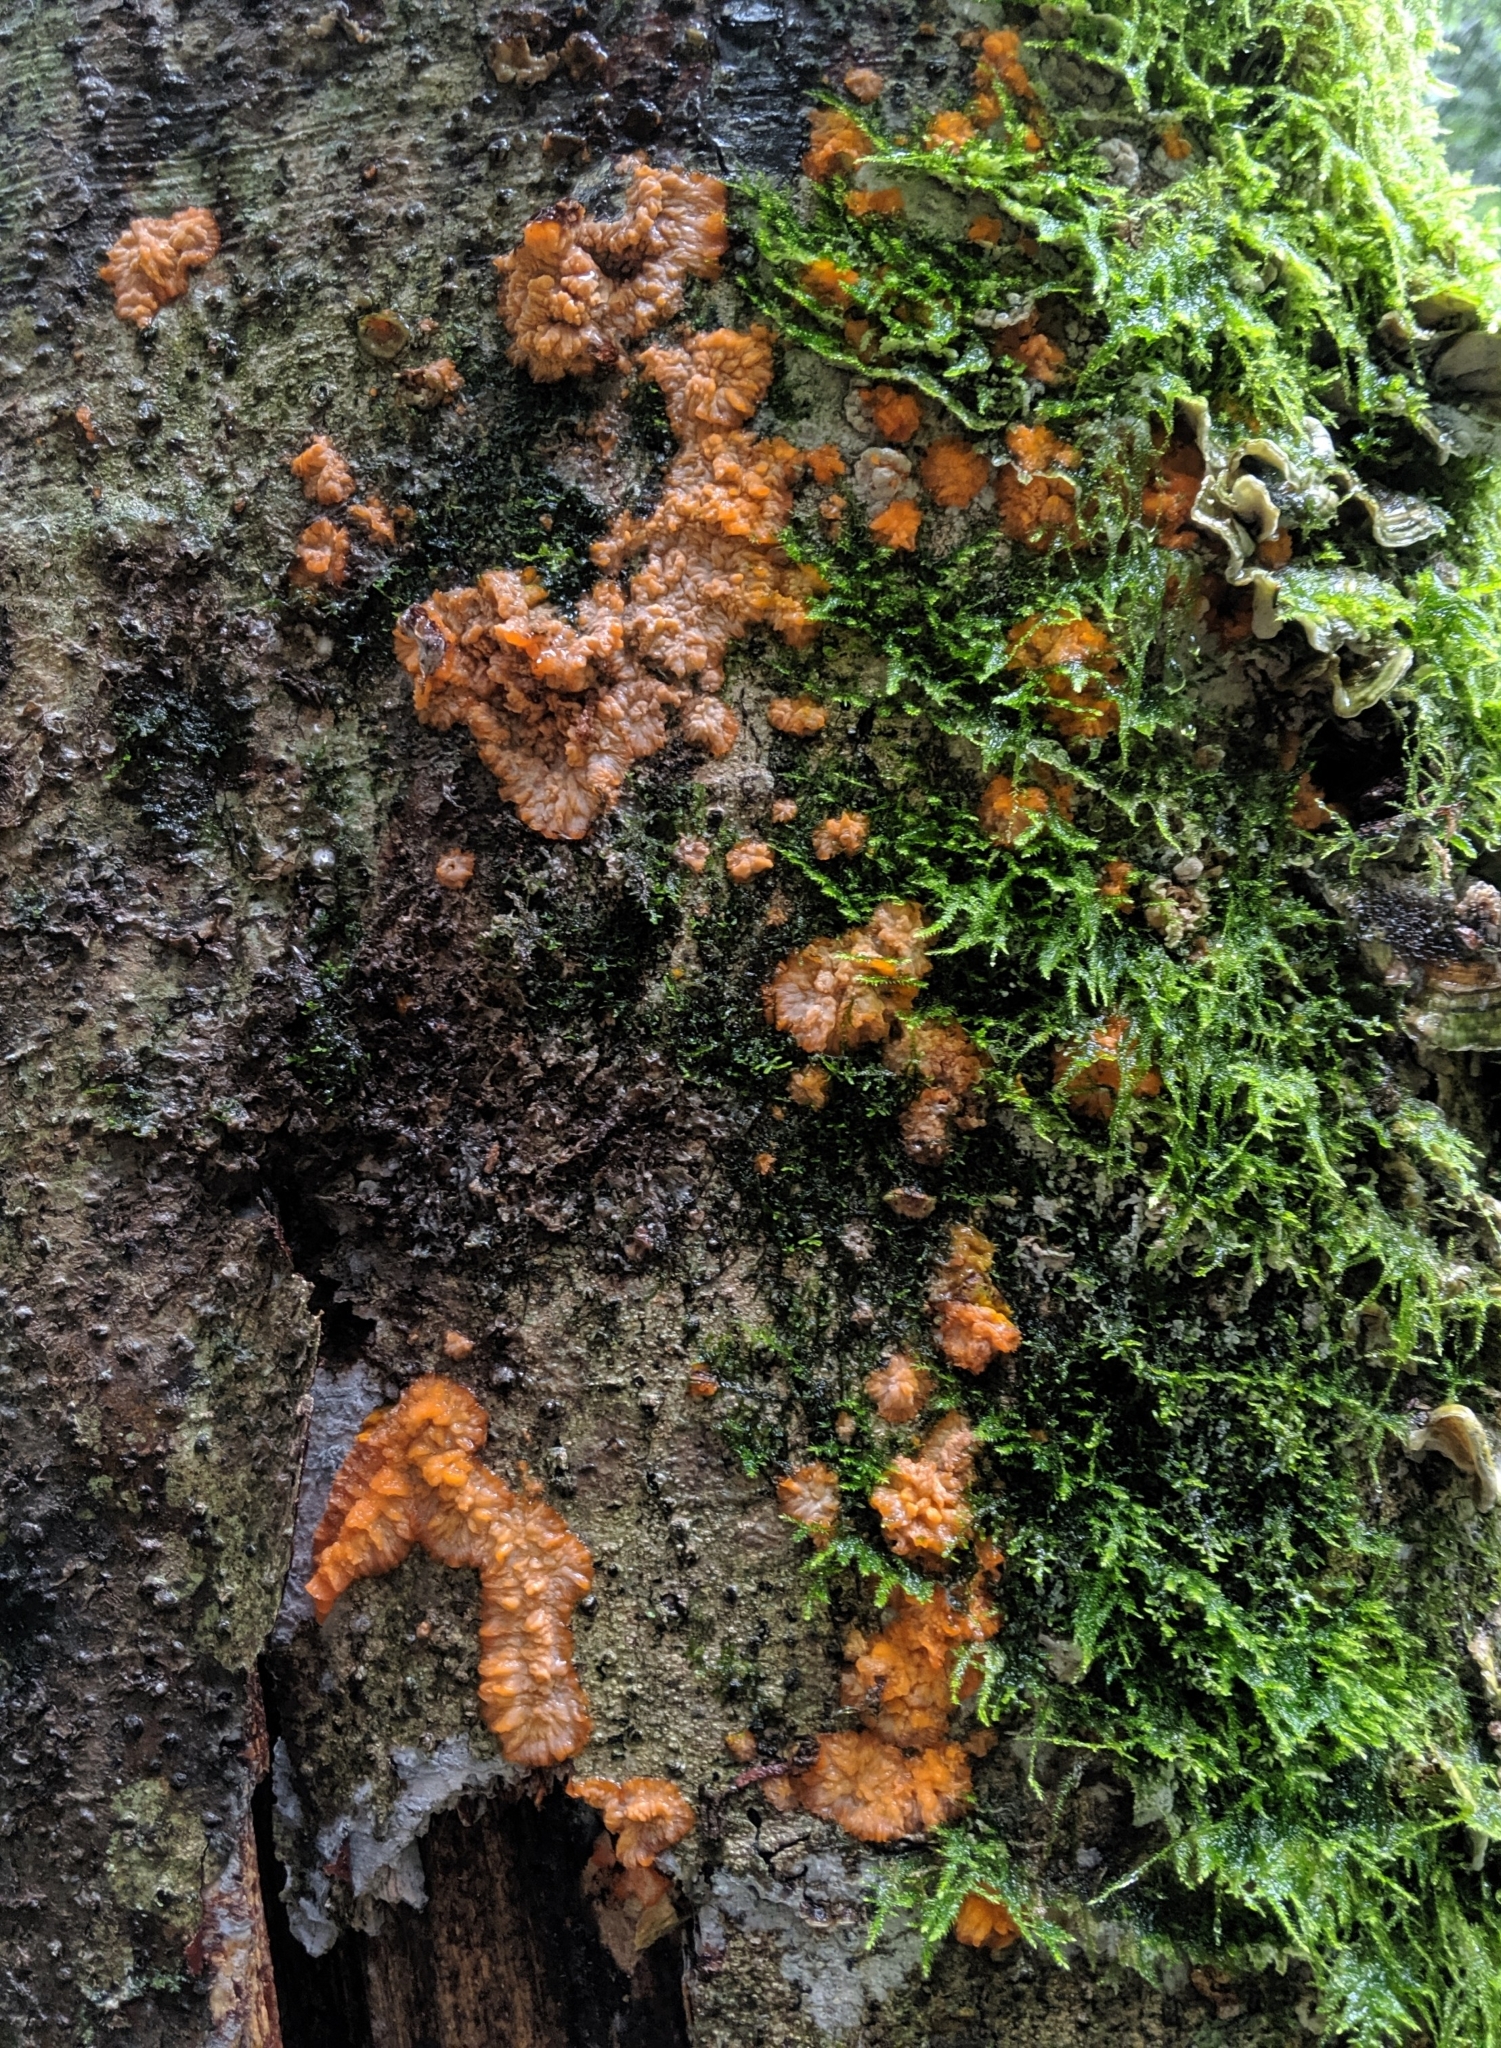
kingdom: Fungi
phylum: Basidiomycota
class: Agaricomycetes
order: Polyporales
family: Meruliaceae
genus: Phlebia
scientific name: Phlebia radiata
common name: Wrinkled crust
